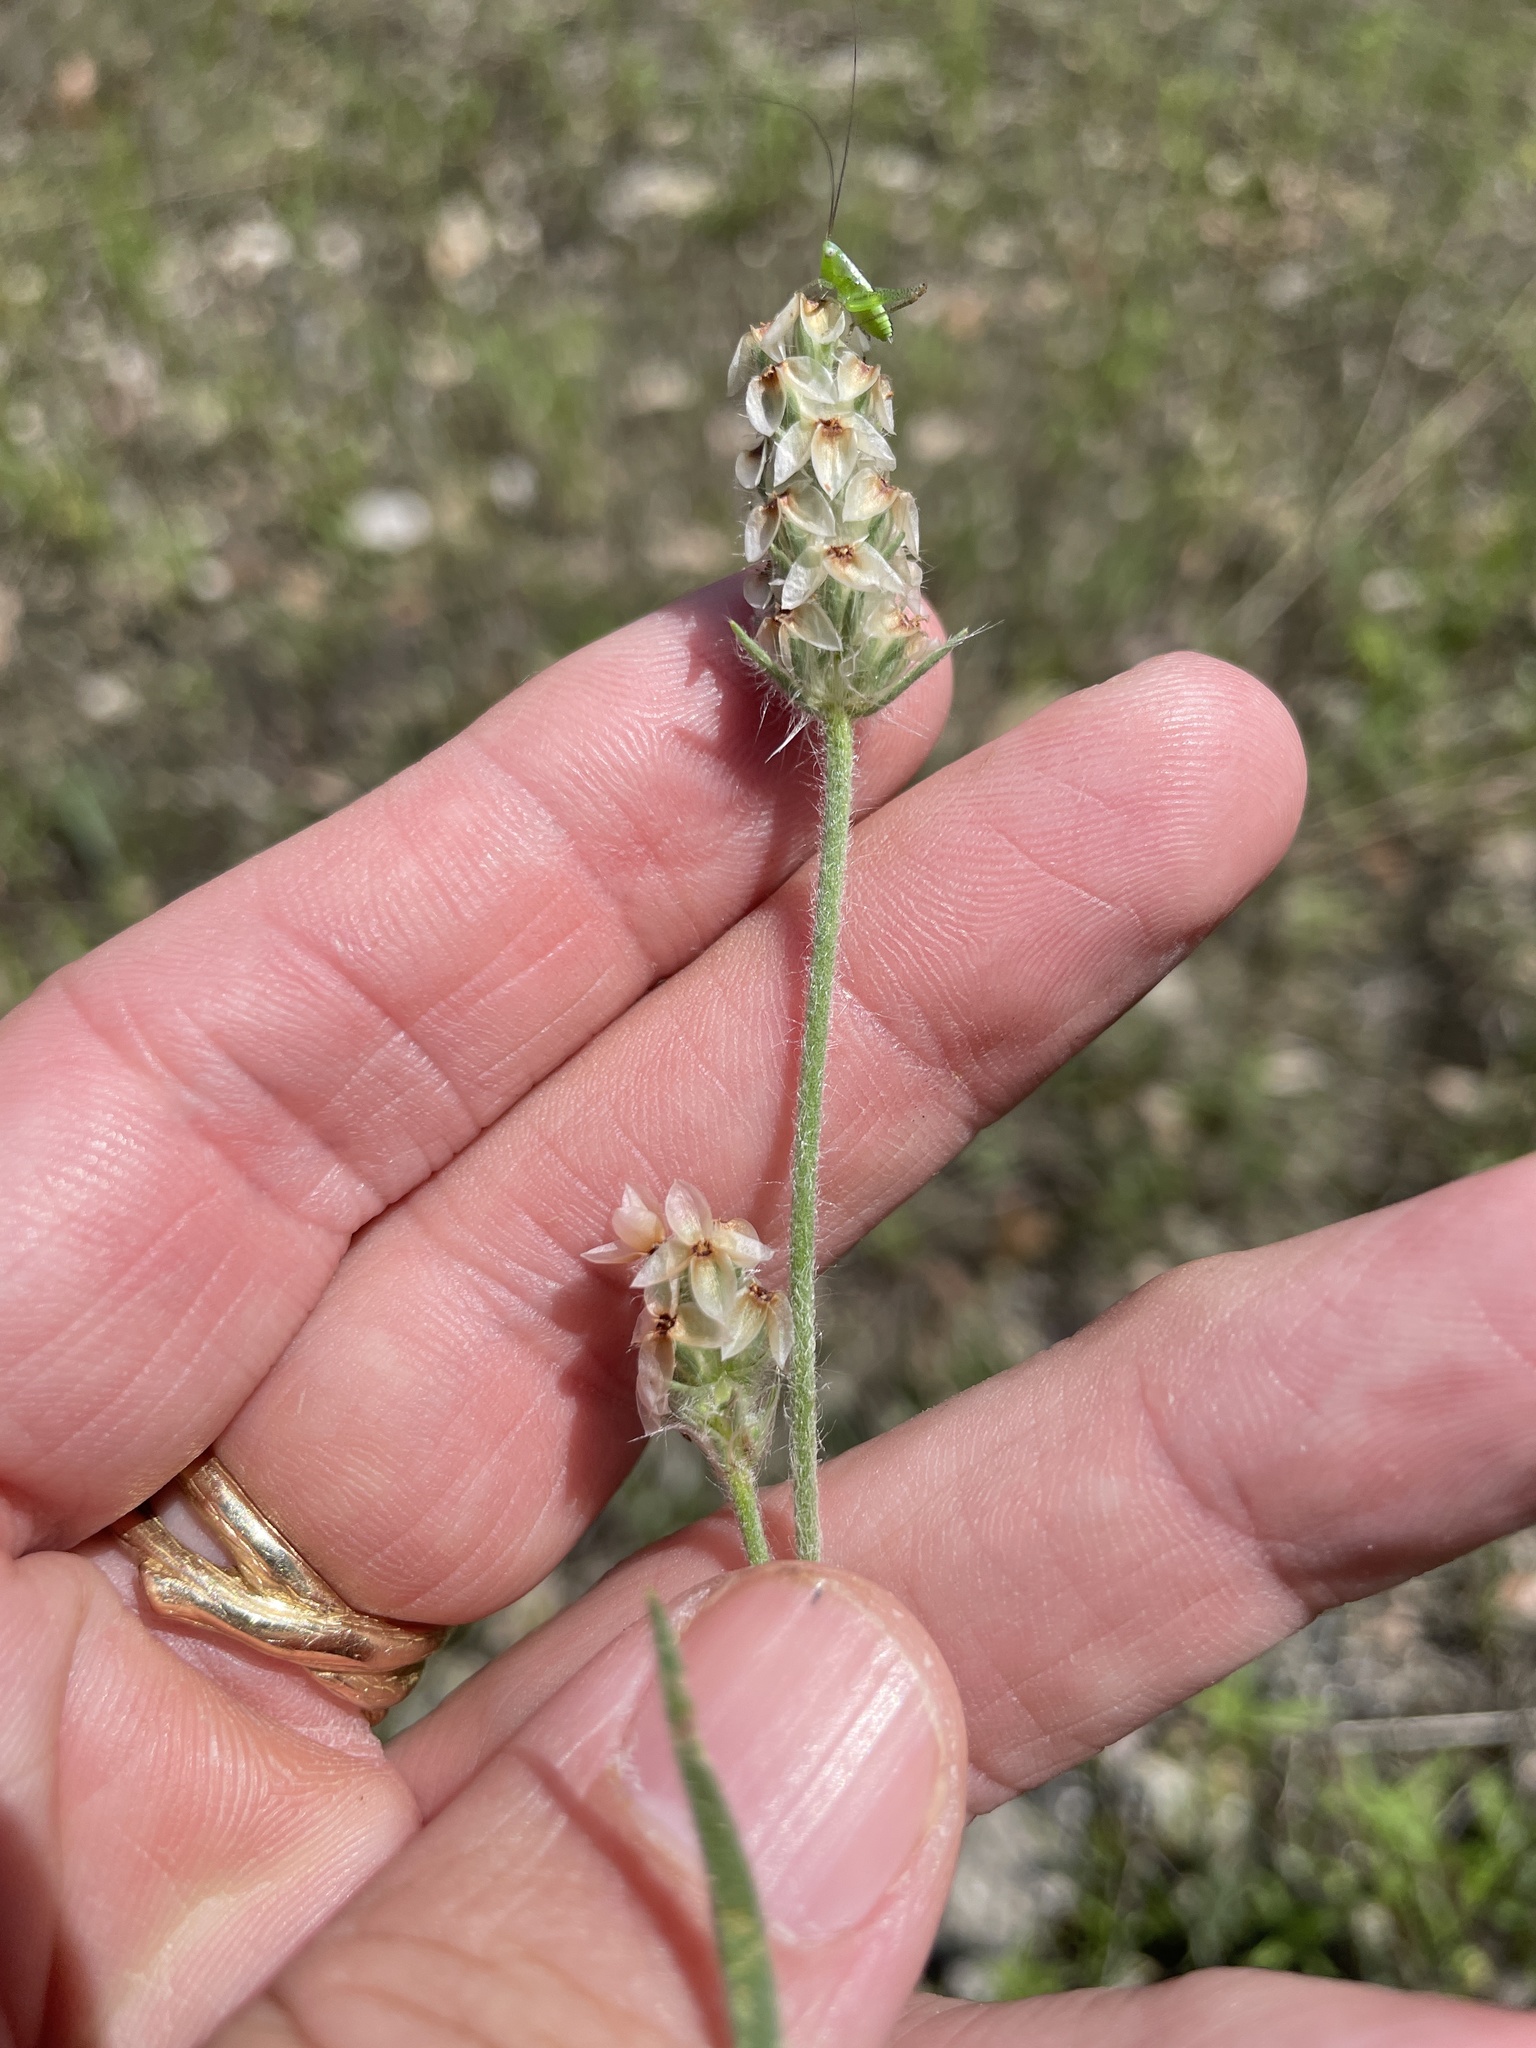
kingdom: Plantae
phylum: Tracheophyta
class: Magnoliopsida
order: Lamiales
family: Plantaginaceae
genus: Plantago
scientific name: Plantago helleri
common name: Heller's plantain
